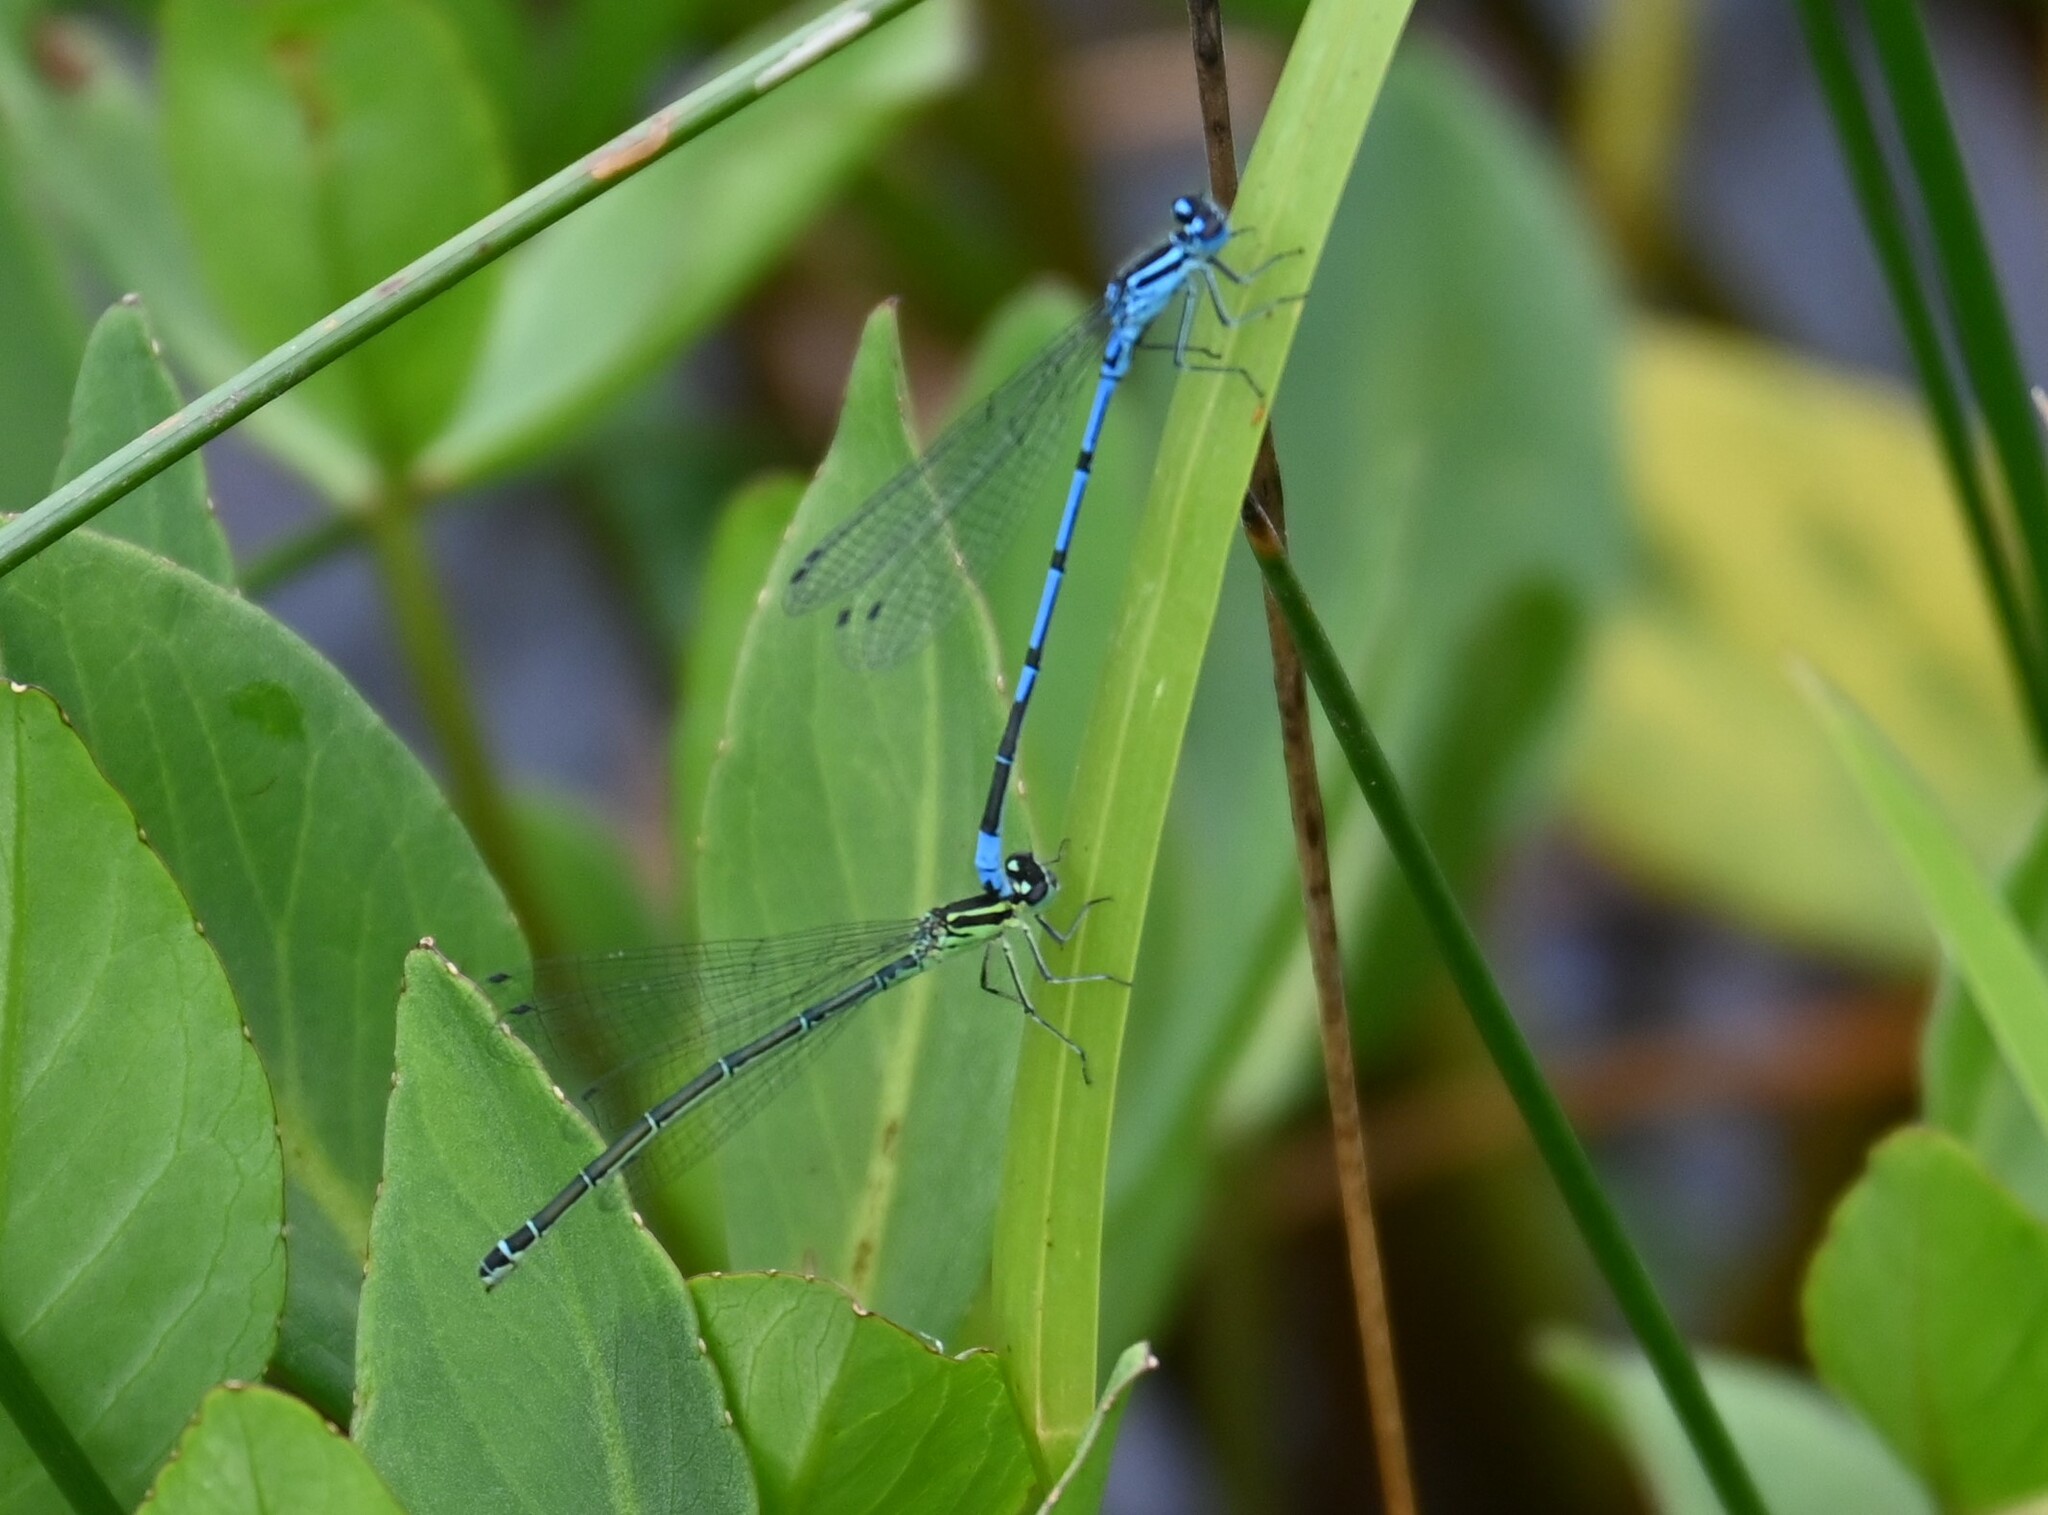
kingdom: Animalia
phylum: Arthropoda
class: Insecta
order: Odonata
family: Coenagrionidae
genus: Coenagrion
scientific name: Coenagrion puella
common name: Azure damselfly
